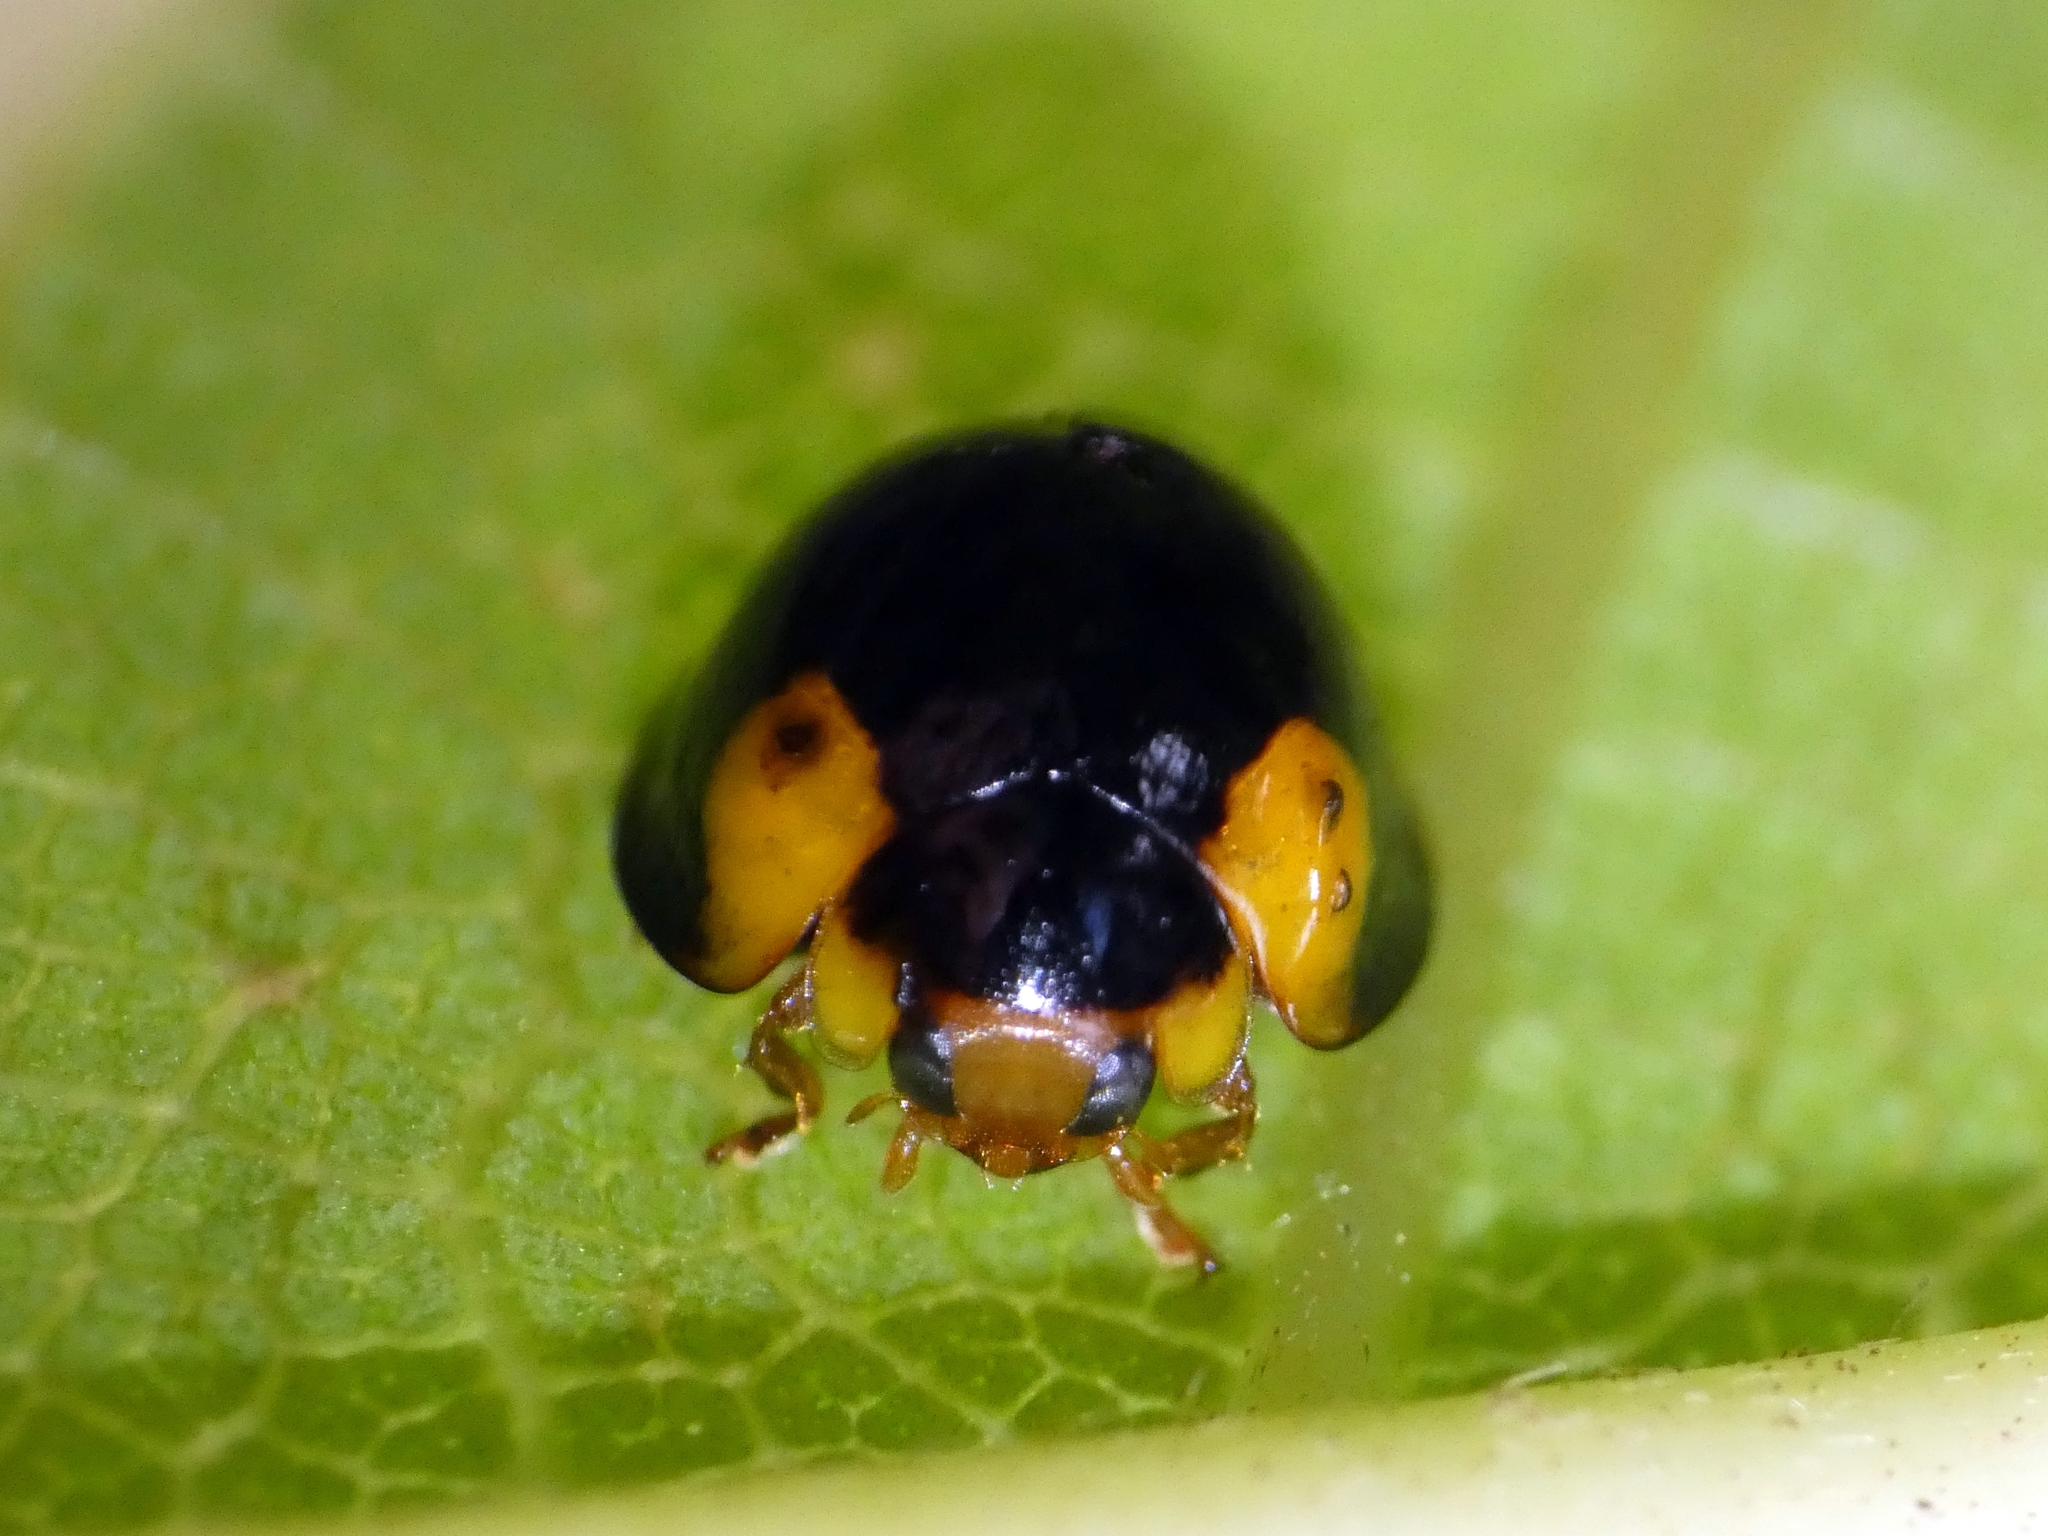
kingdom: Animalia
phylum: Arthropoda
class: Insecta
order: Coleoptera
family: Coccinellidae
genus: Chilocorus
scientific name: Chilocorus
